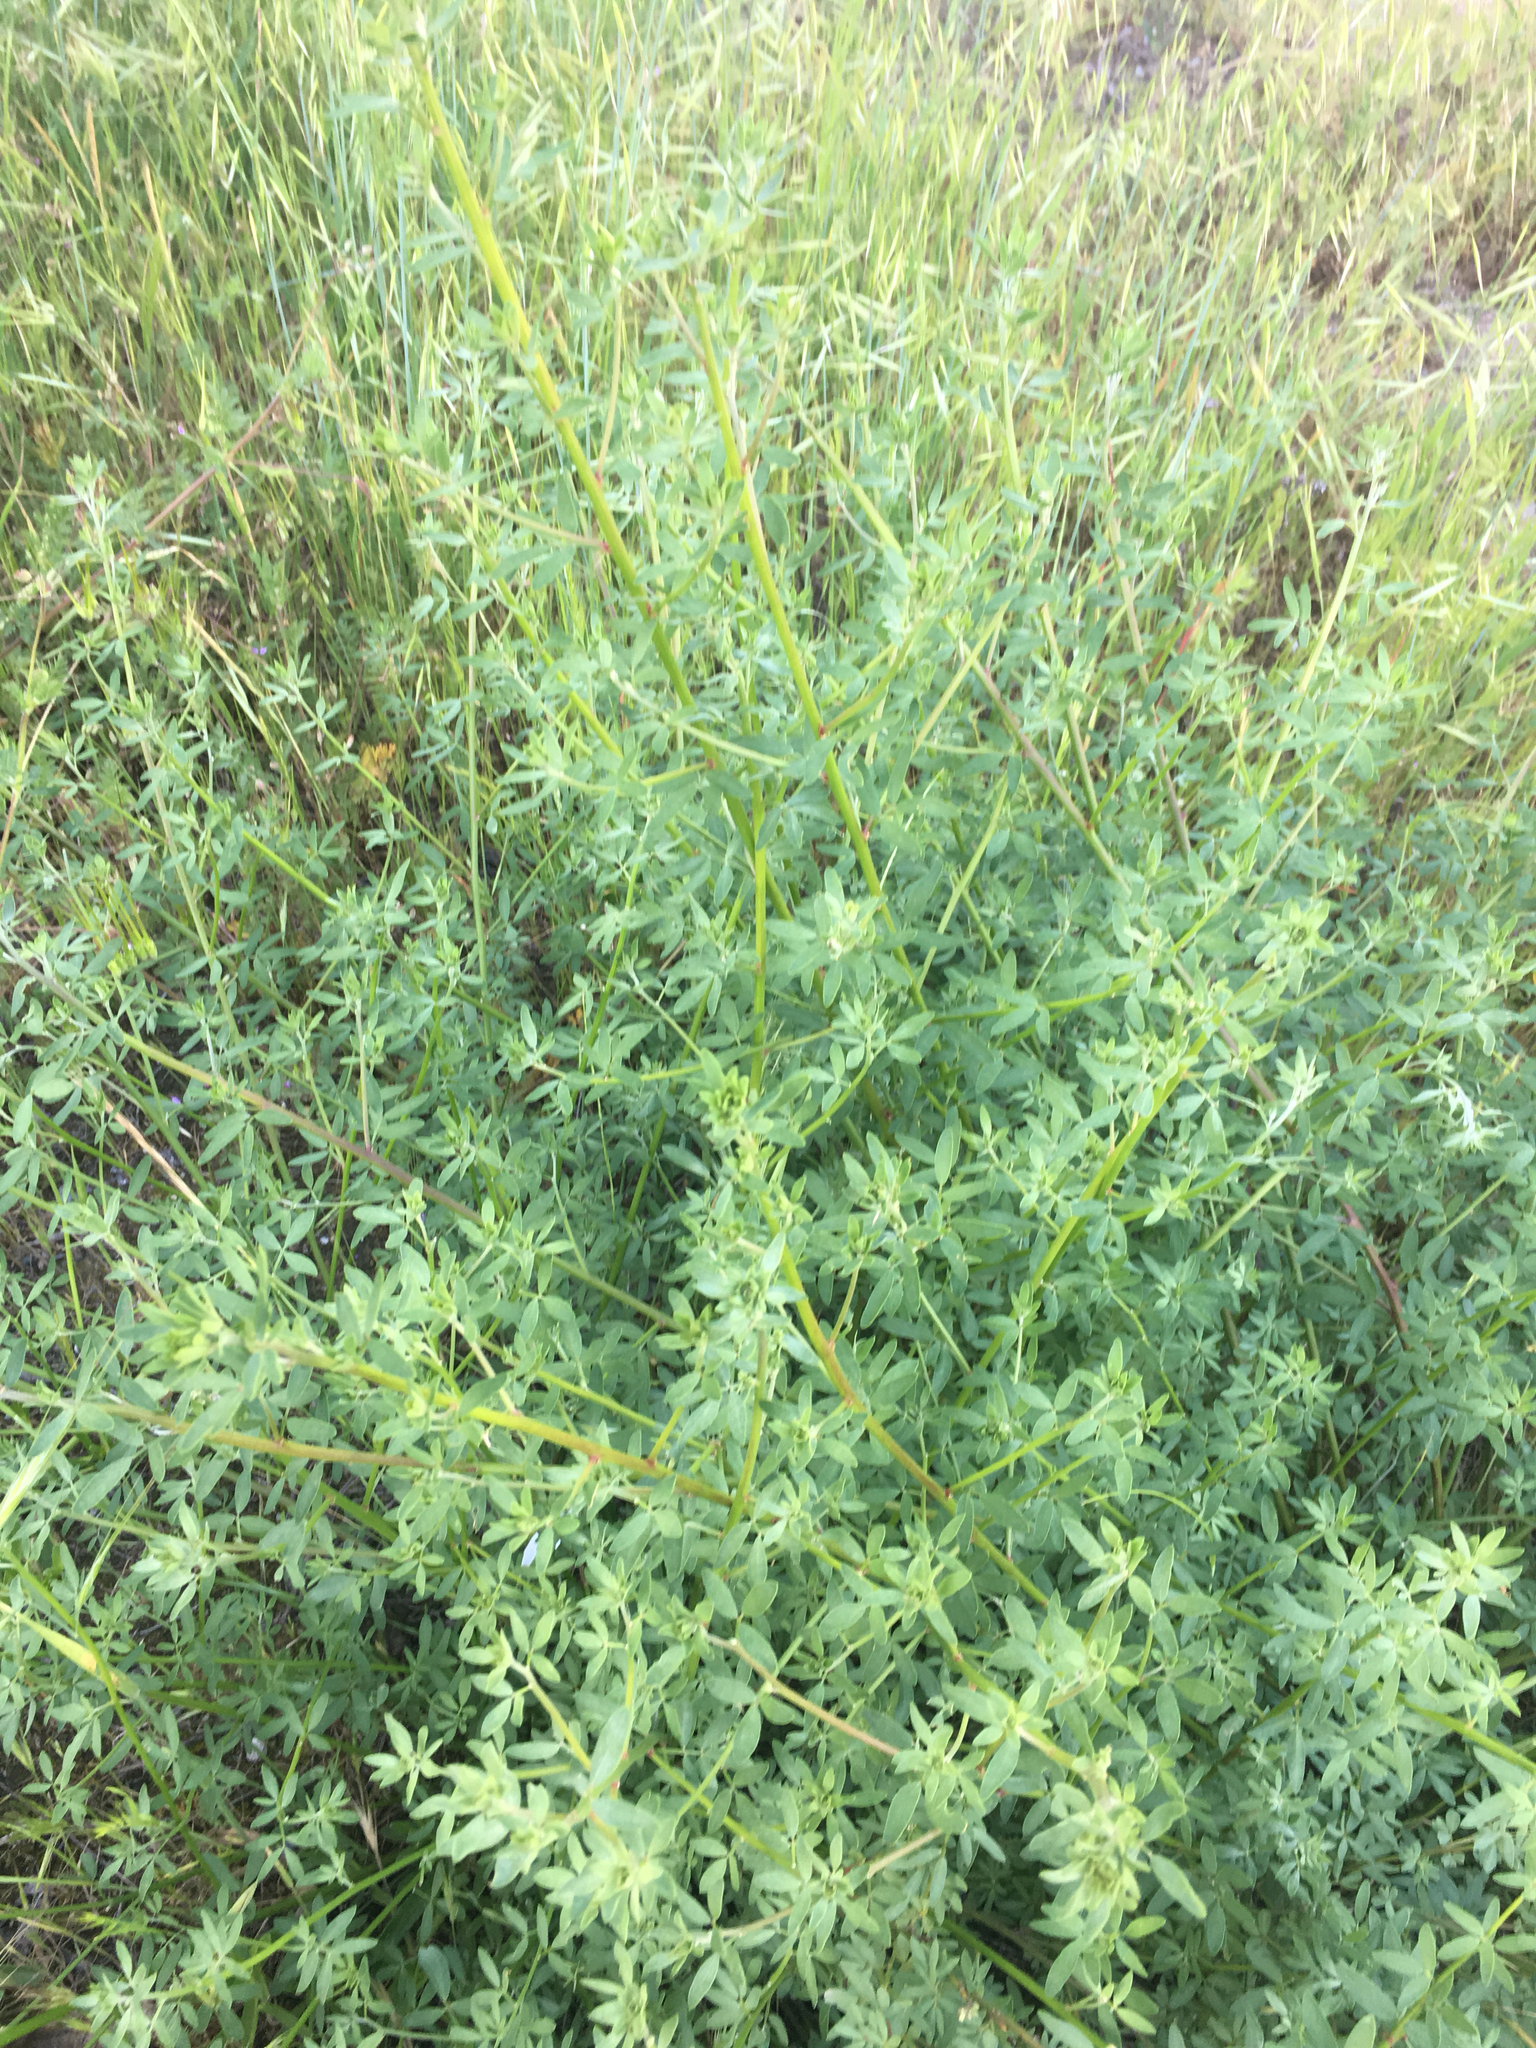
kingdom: Plantae
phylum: Tracheophyta
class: Magnoliopsida
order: Fabales
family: Fabaceae
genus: Acmispon
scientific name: Acmispon glaber
